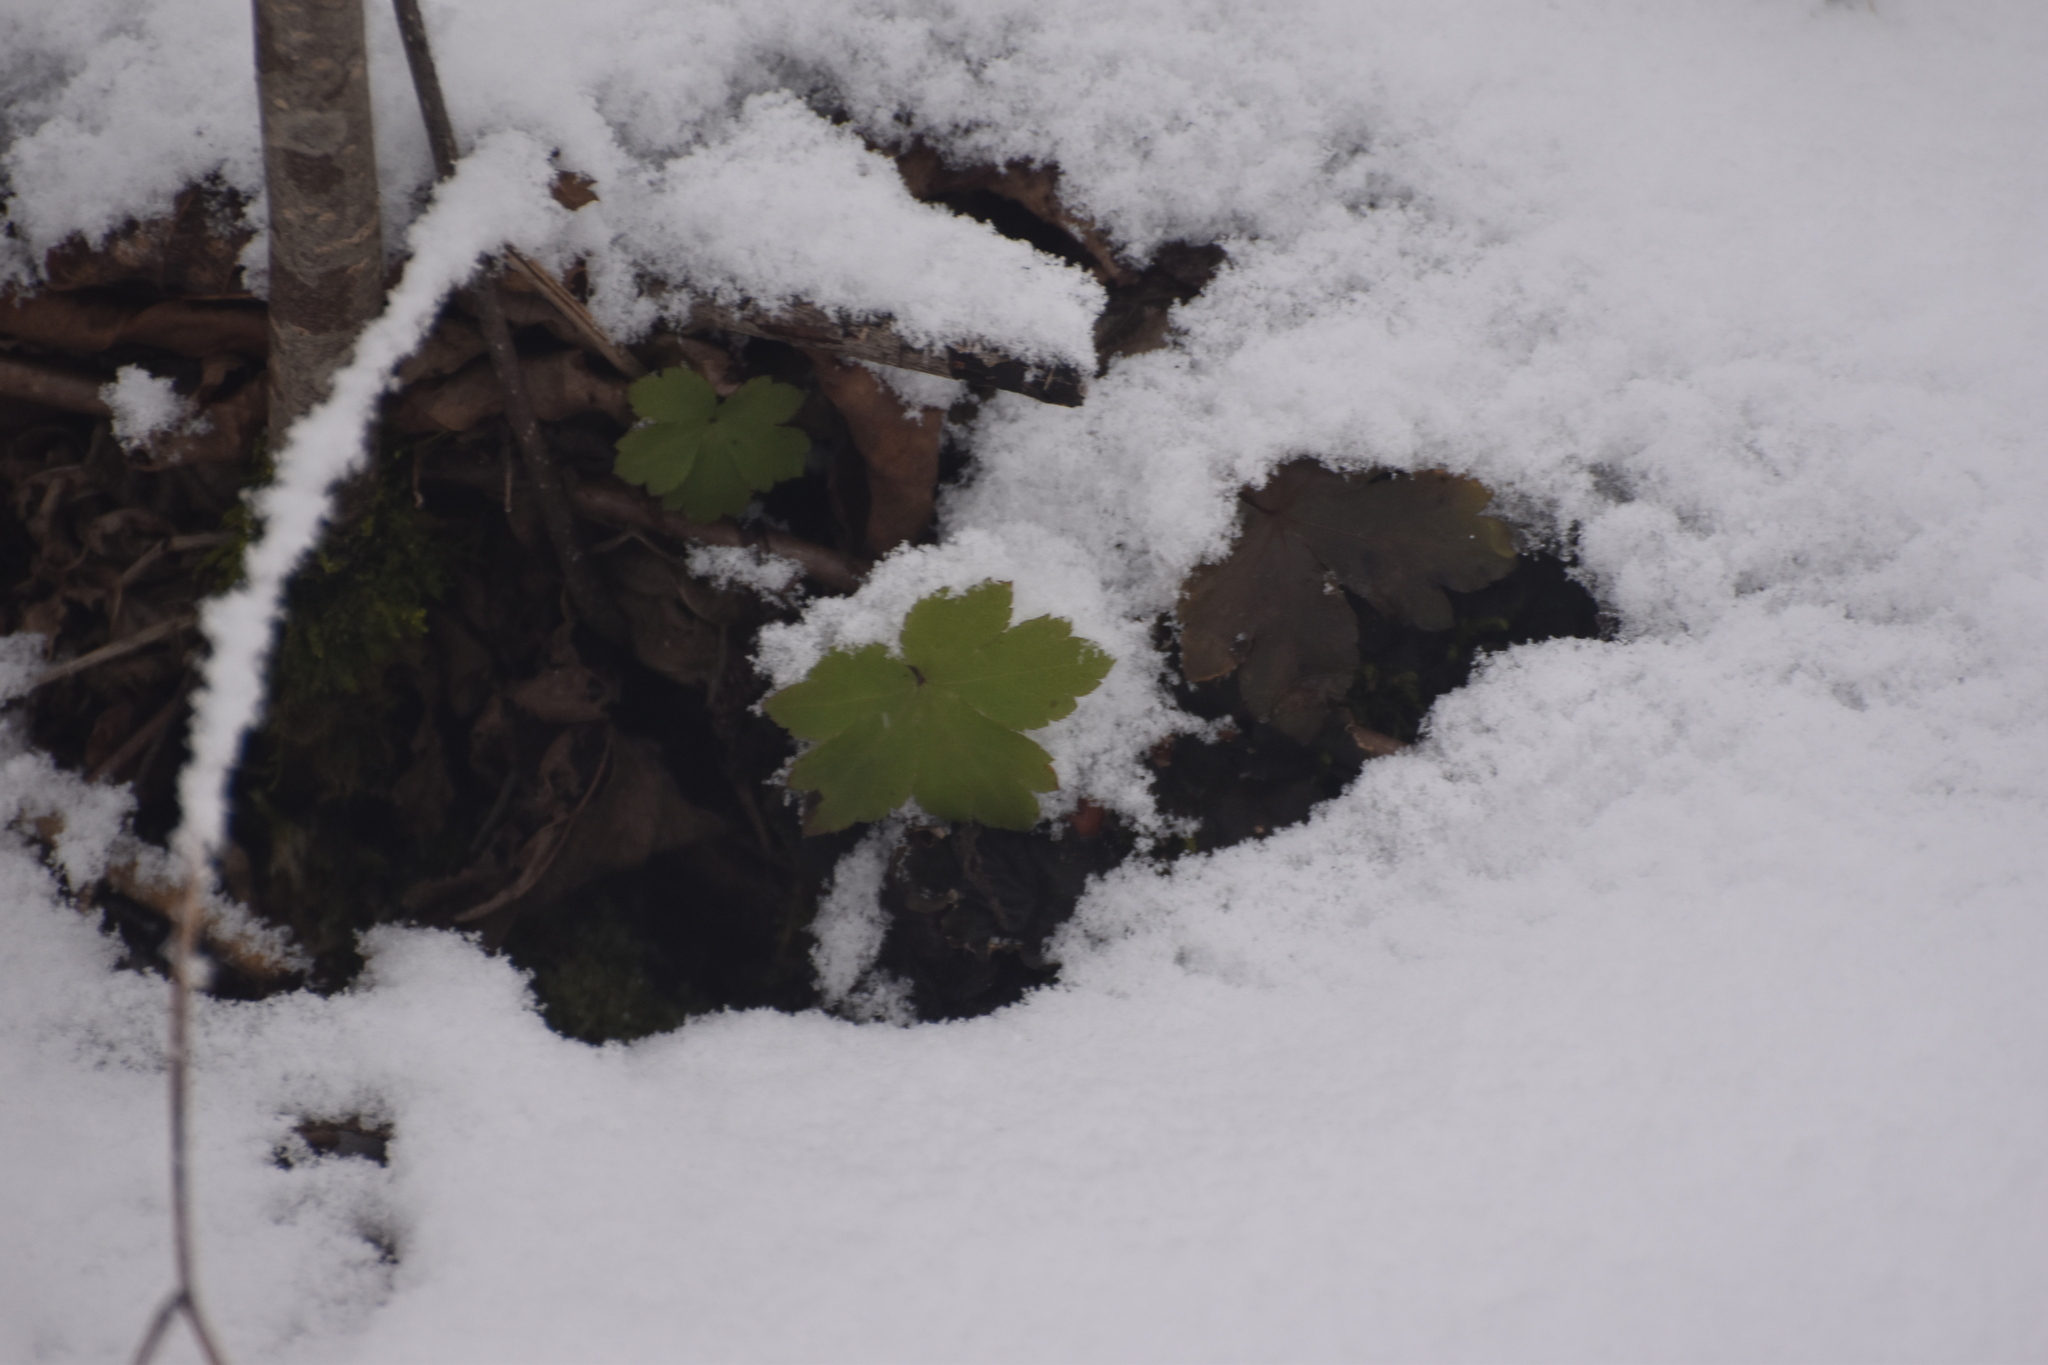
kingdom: Plantae
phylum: Tracheophyta
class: Magnoliopsida
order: Apiales
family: Apiaceae
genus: Sanicula
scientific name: Sanicula europaea
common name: Sanicle
